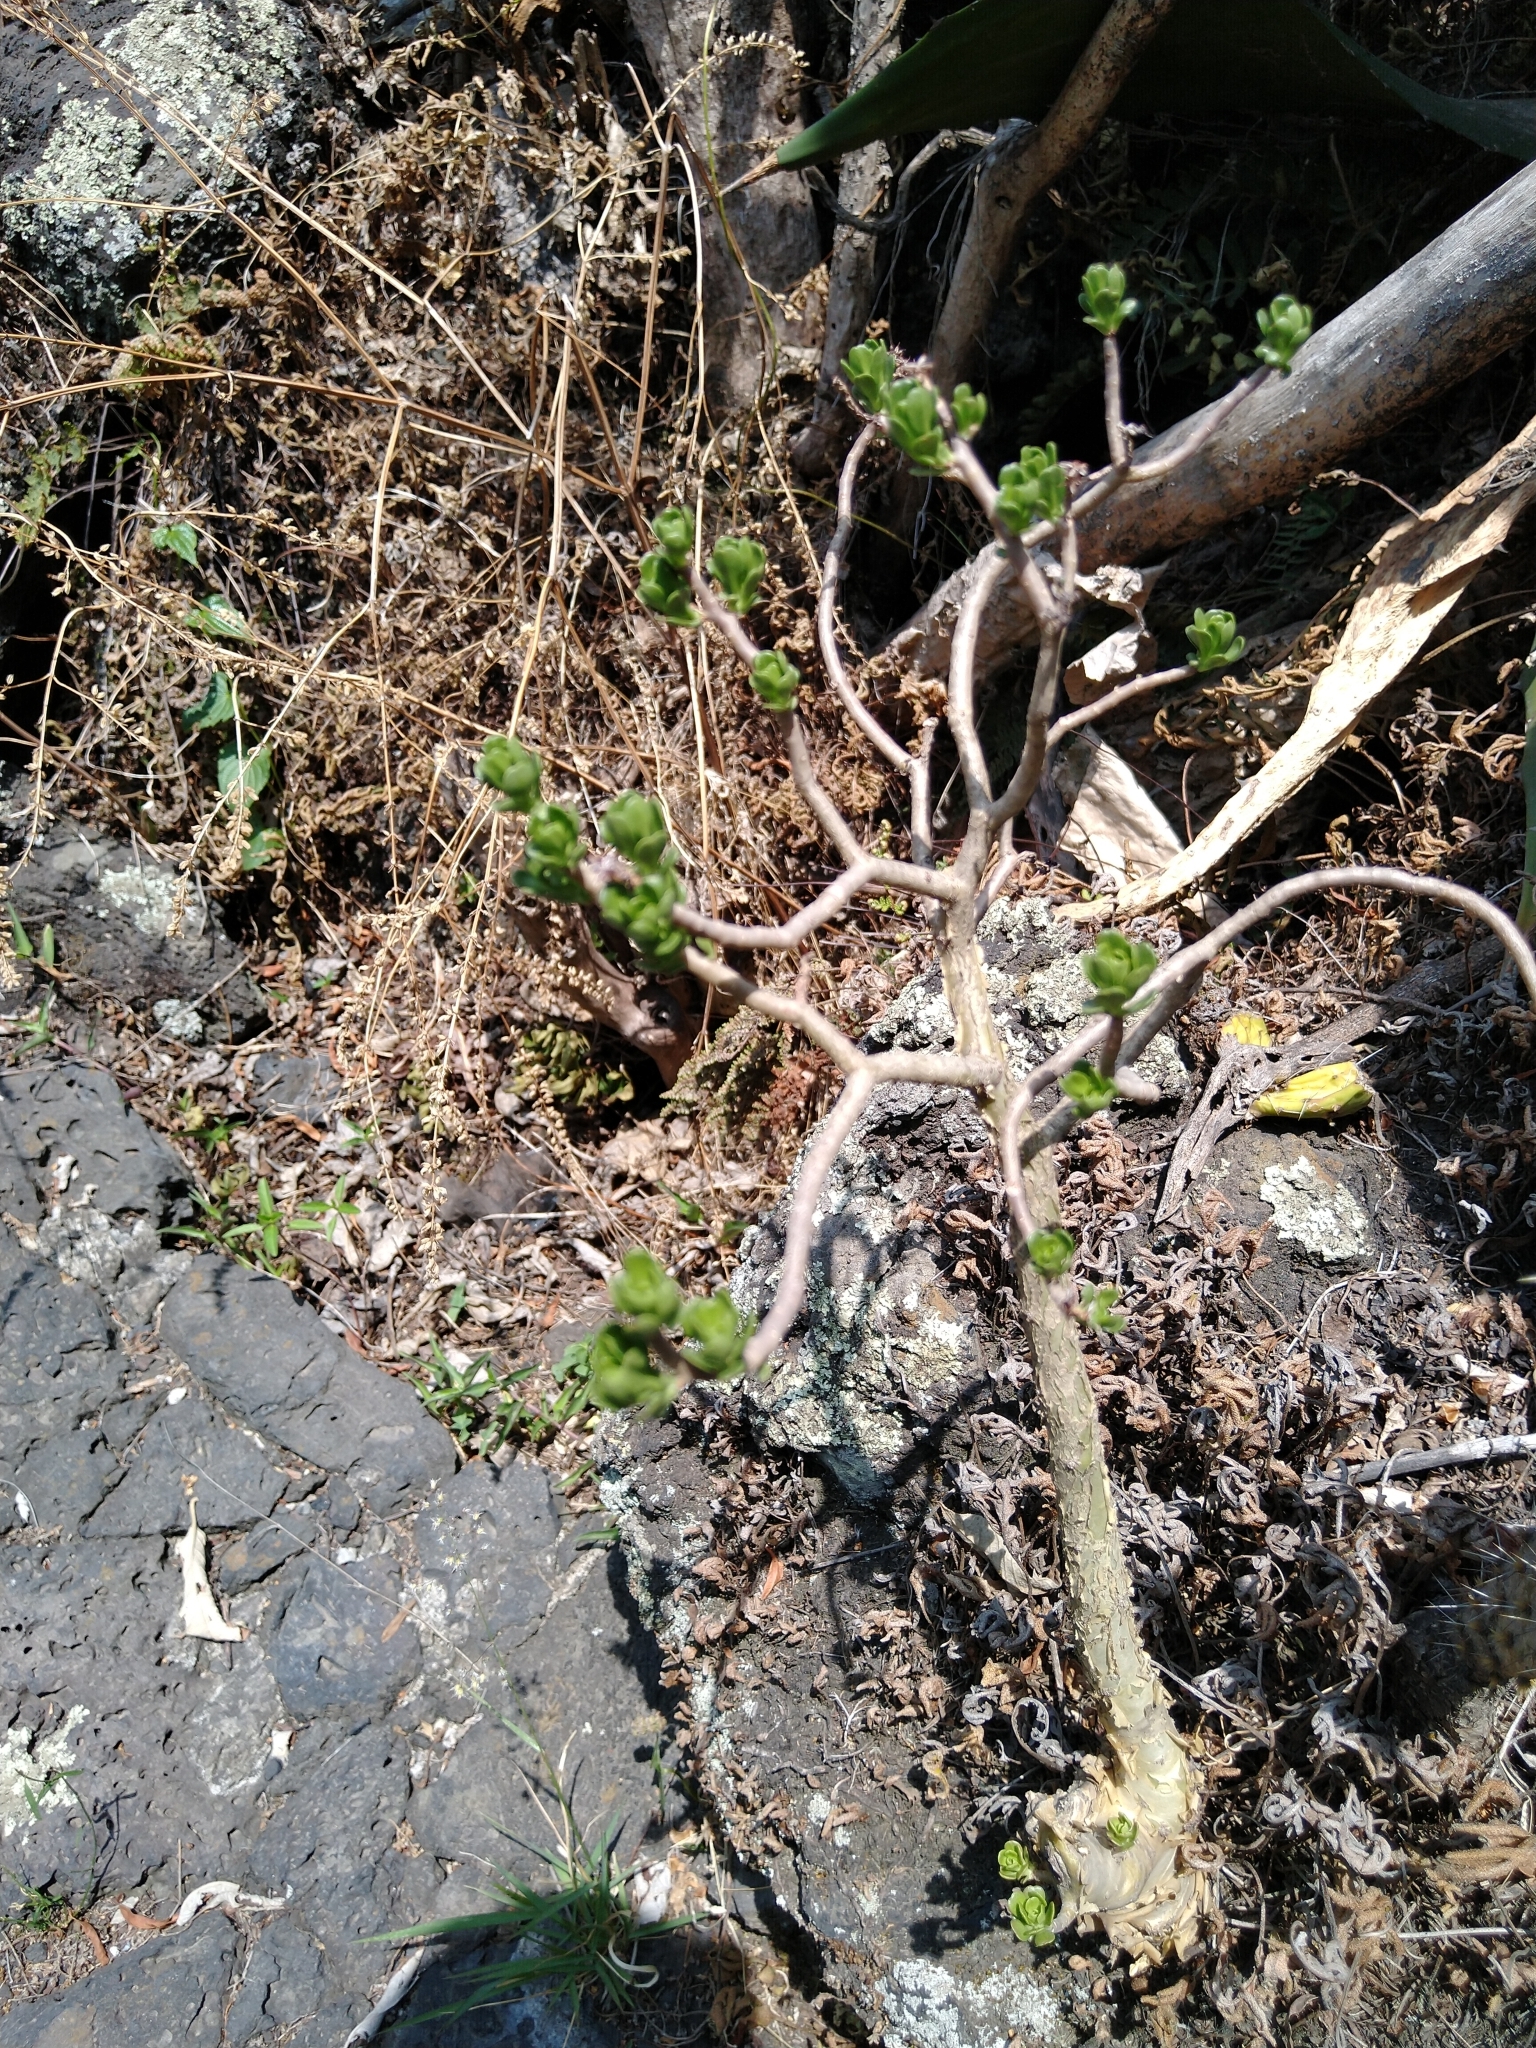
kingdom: Plantae
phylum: Tracheophyta
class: Magnoliopsida
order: Saxifragales
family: Crassulaceae
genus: Sedum
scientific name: Sedum oxypetalum
